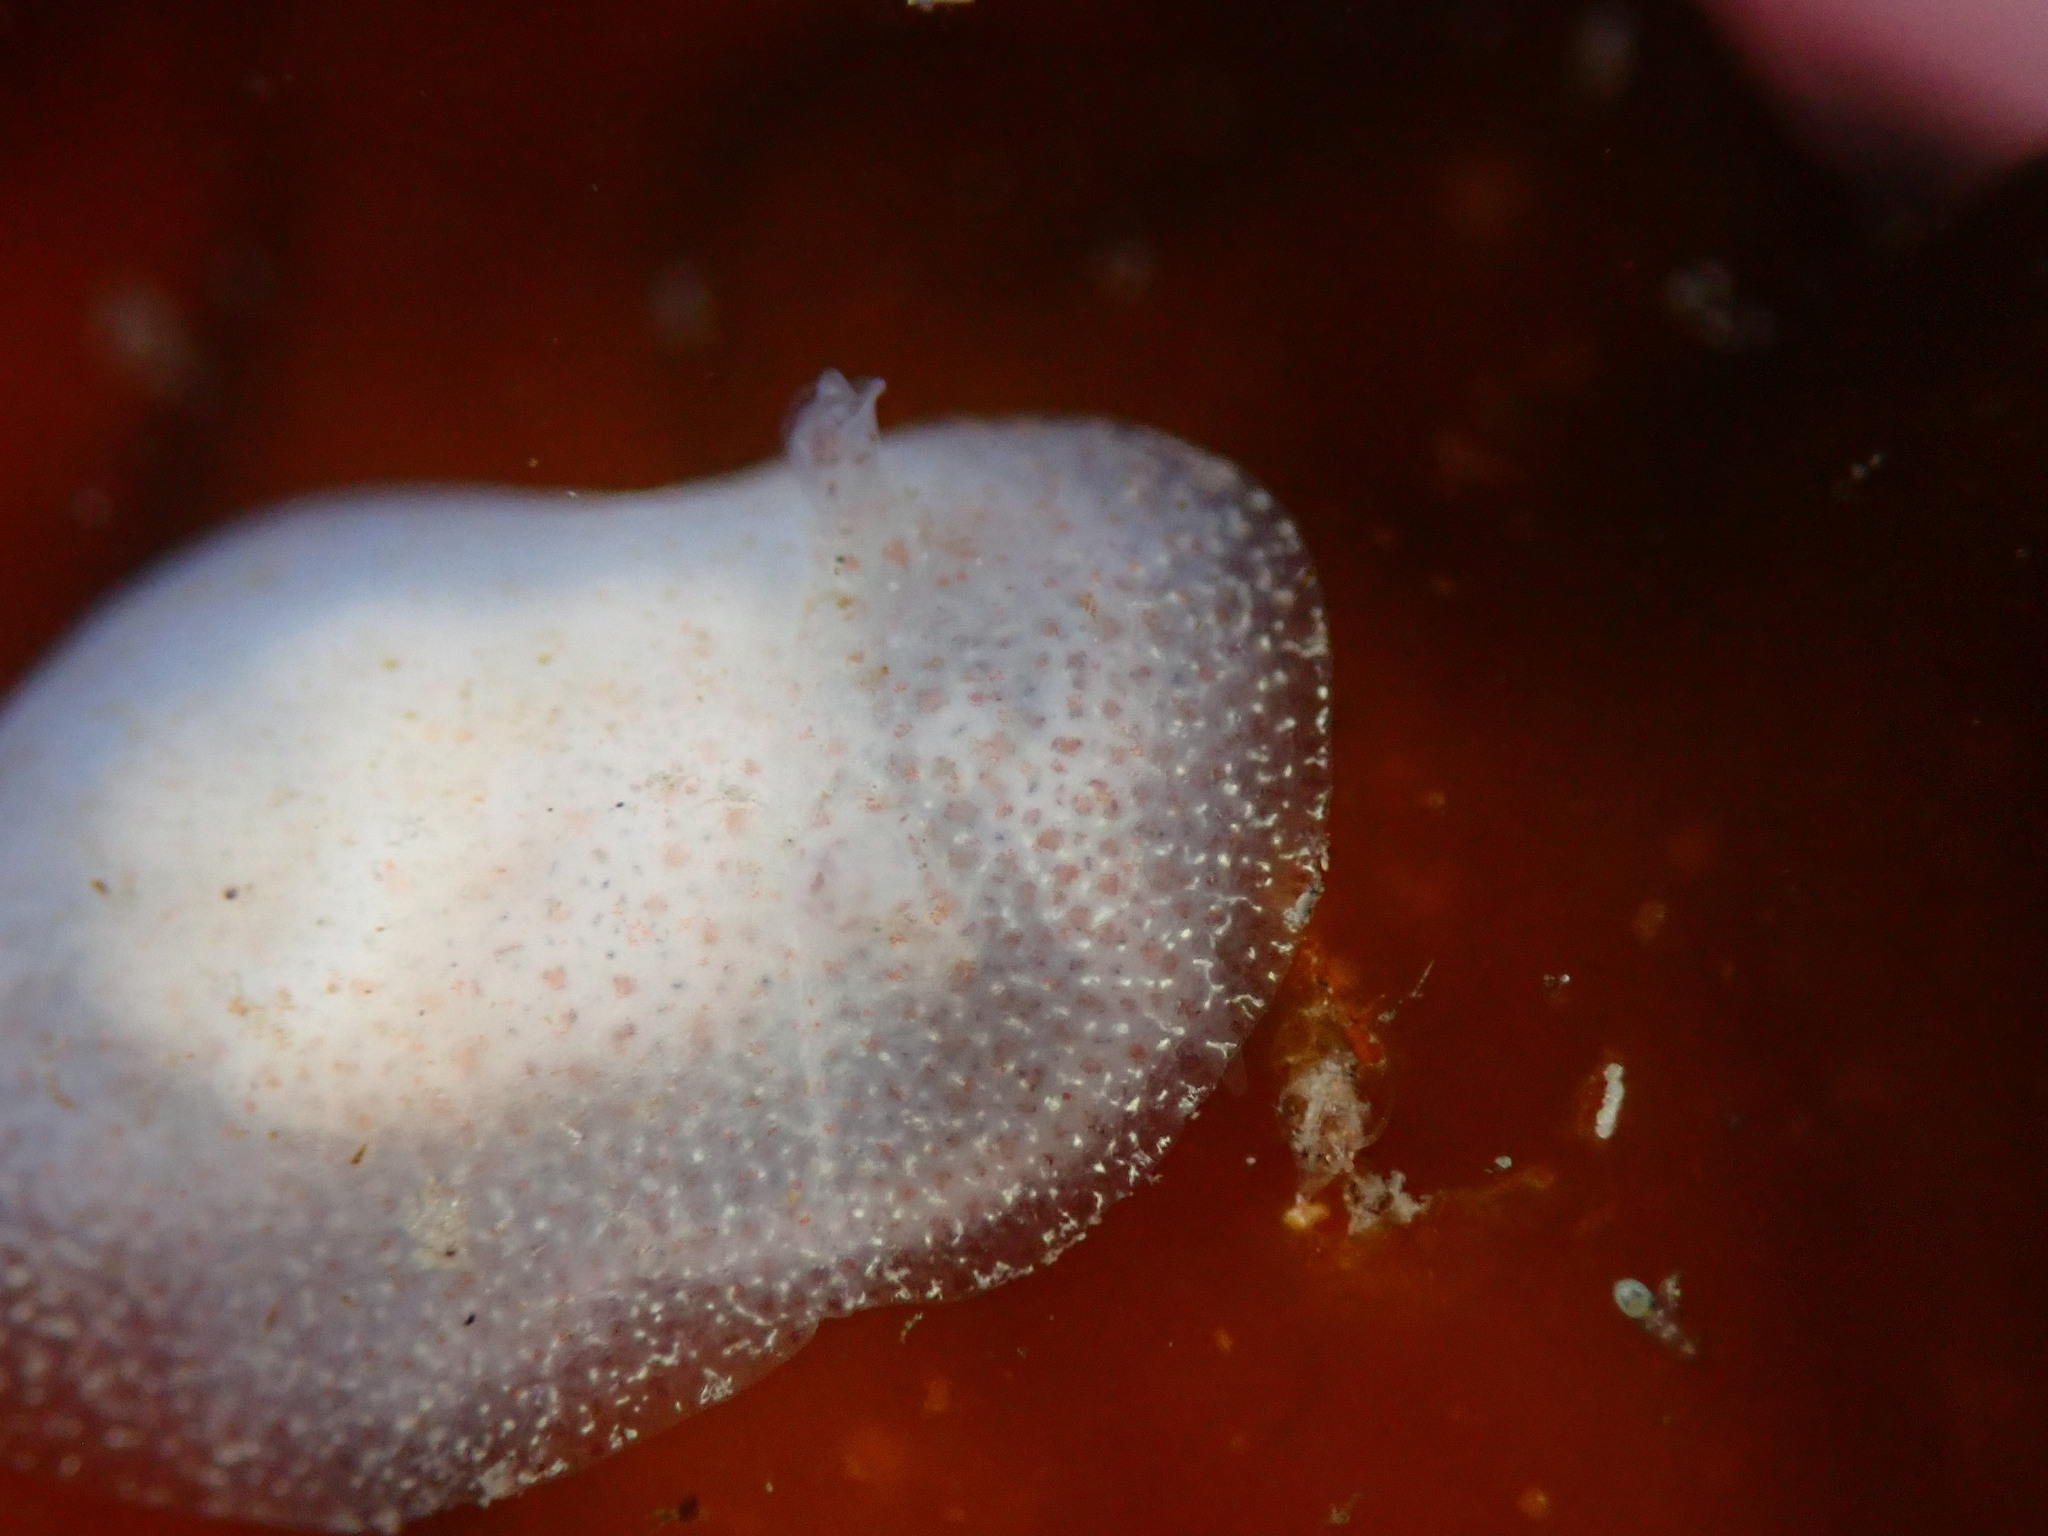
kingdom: Animalia
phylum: Mollusca
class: Gastropoda
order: Nudibranchia
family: Corambidae
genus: Corambe
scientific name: Corambe pacifica
